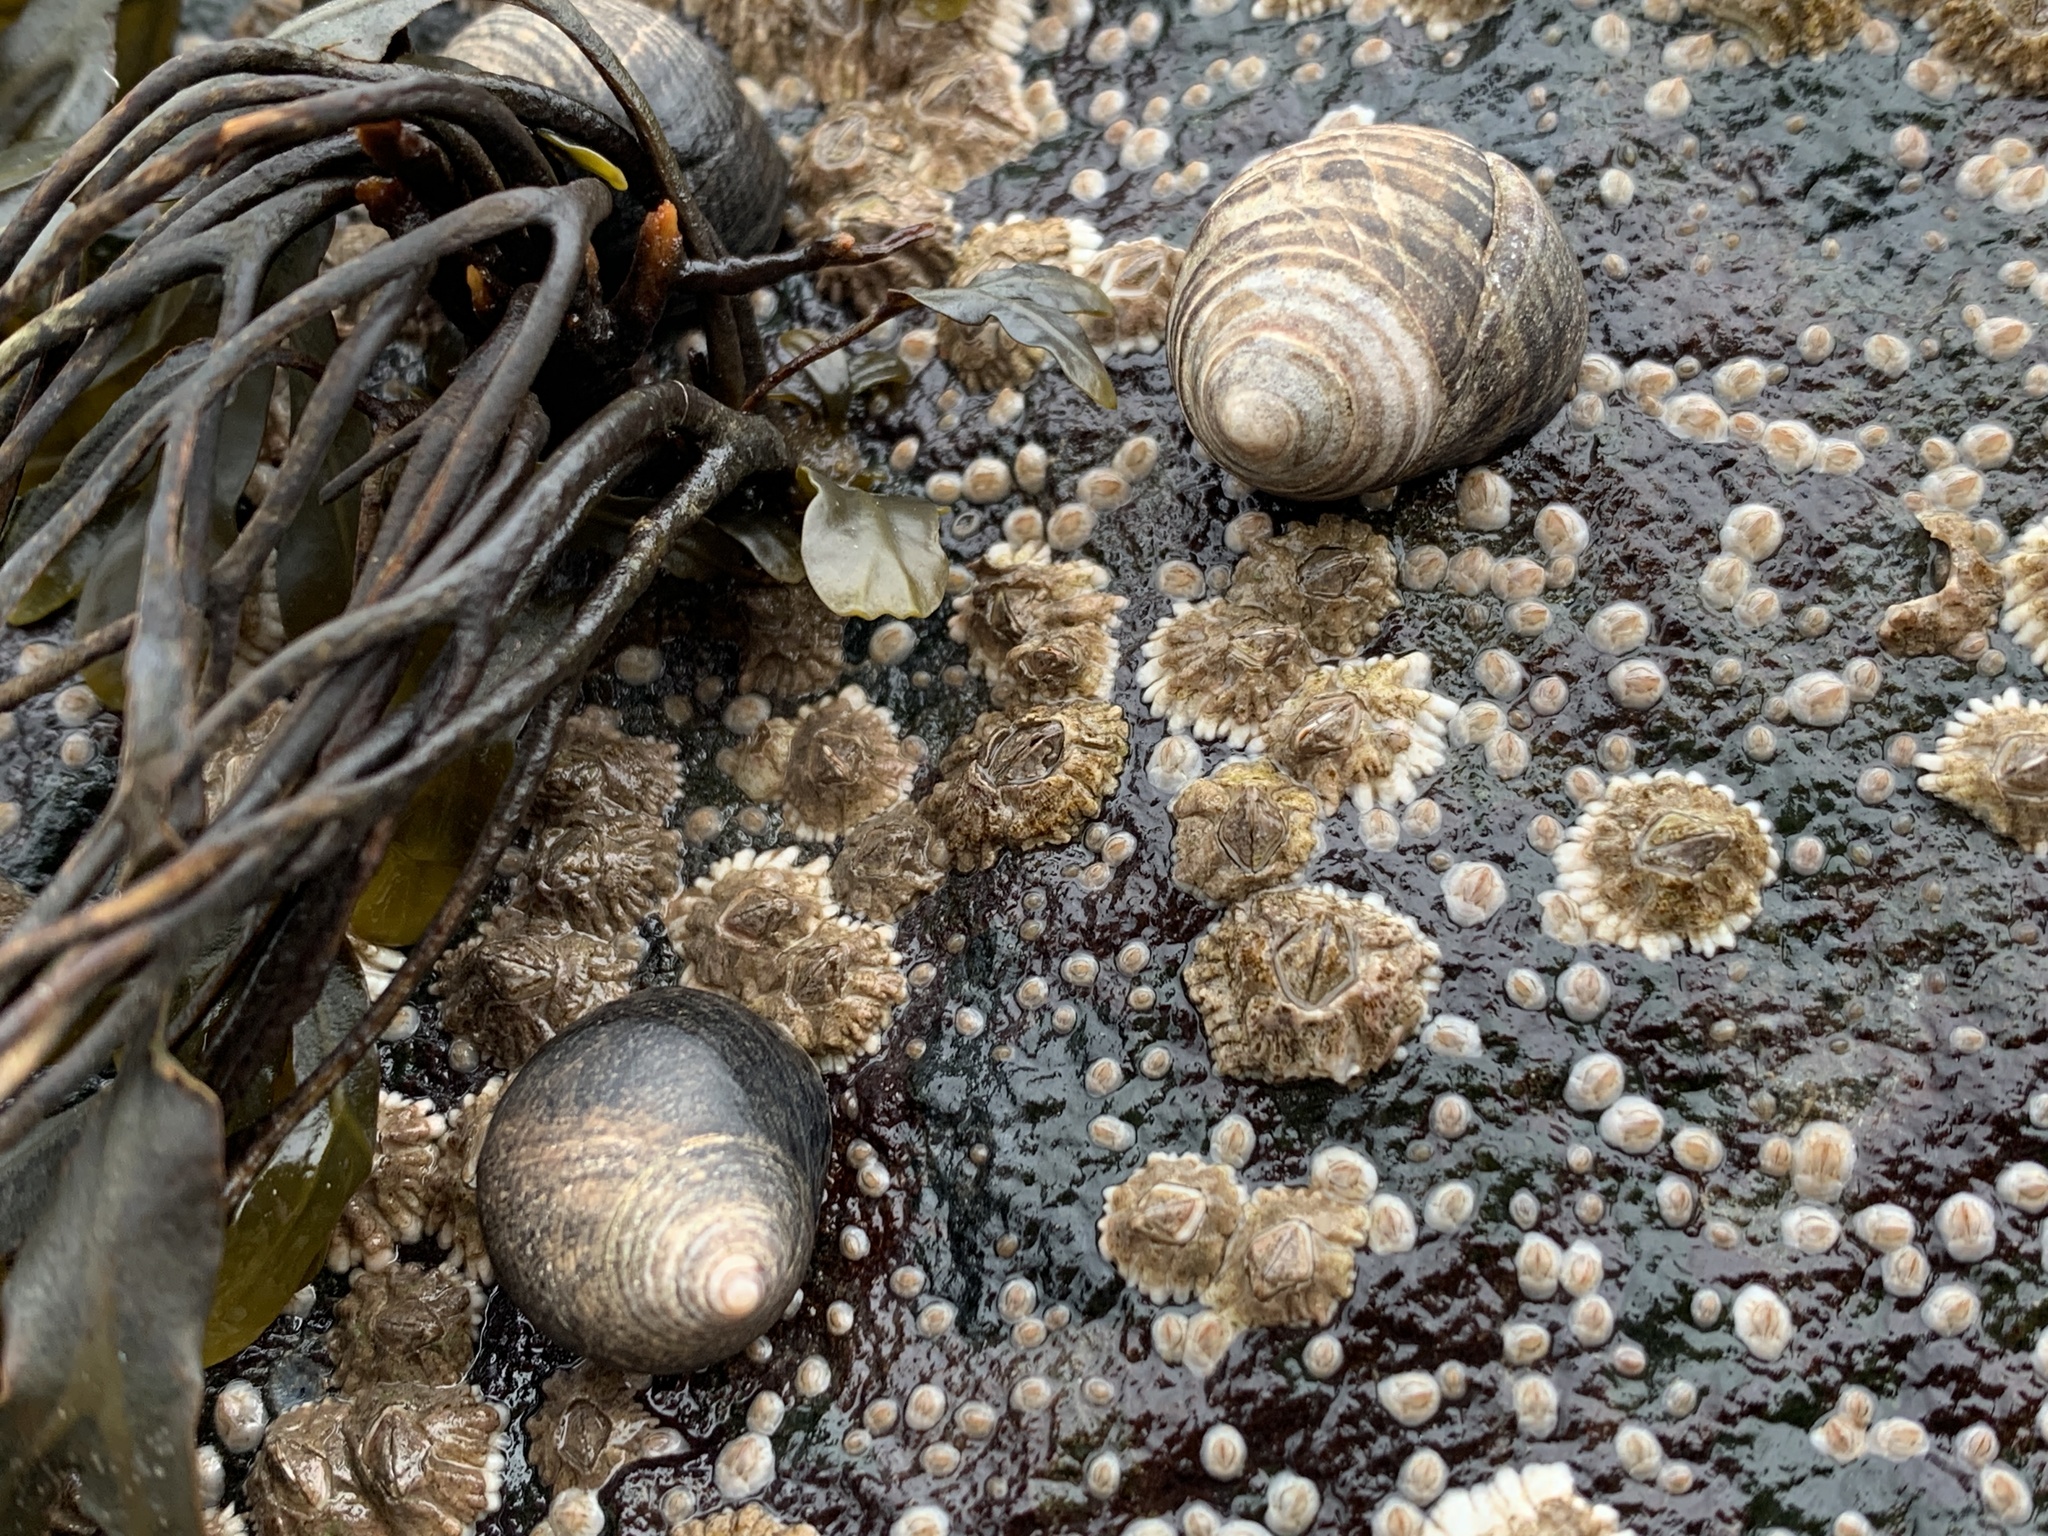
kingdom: Animalia
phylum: Mollusca
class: Gastropoda
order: Littorinimorpha
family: Littorinidae
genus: Littorina
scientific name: Littorina littorea
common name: Common periwinkle
